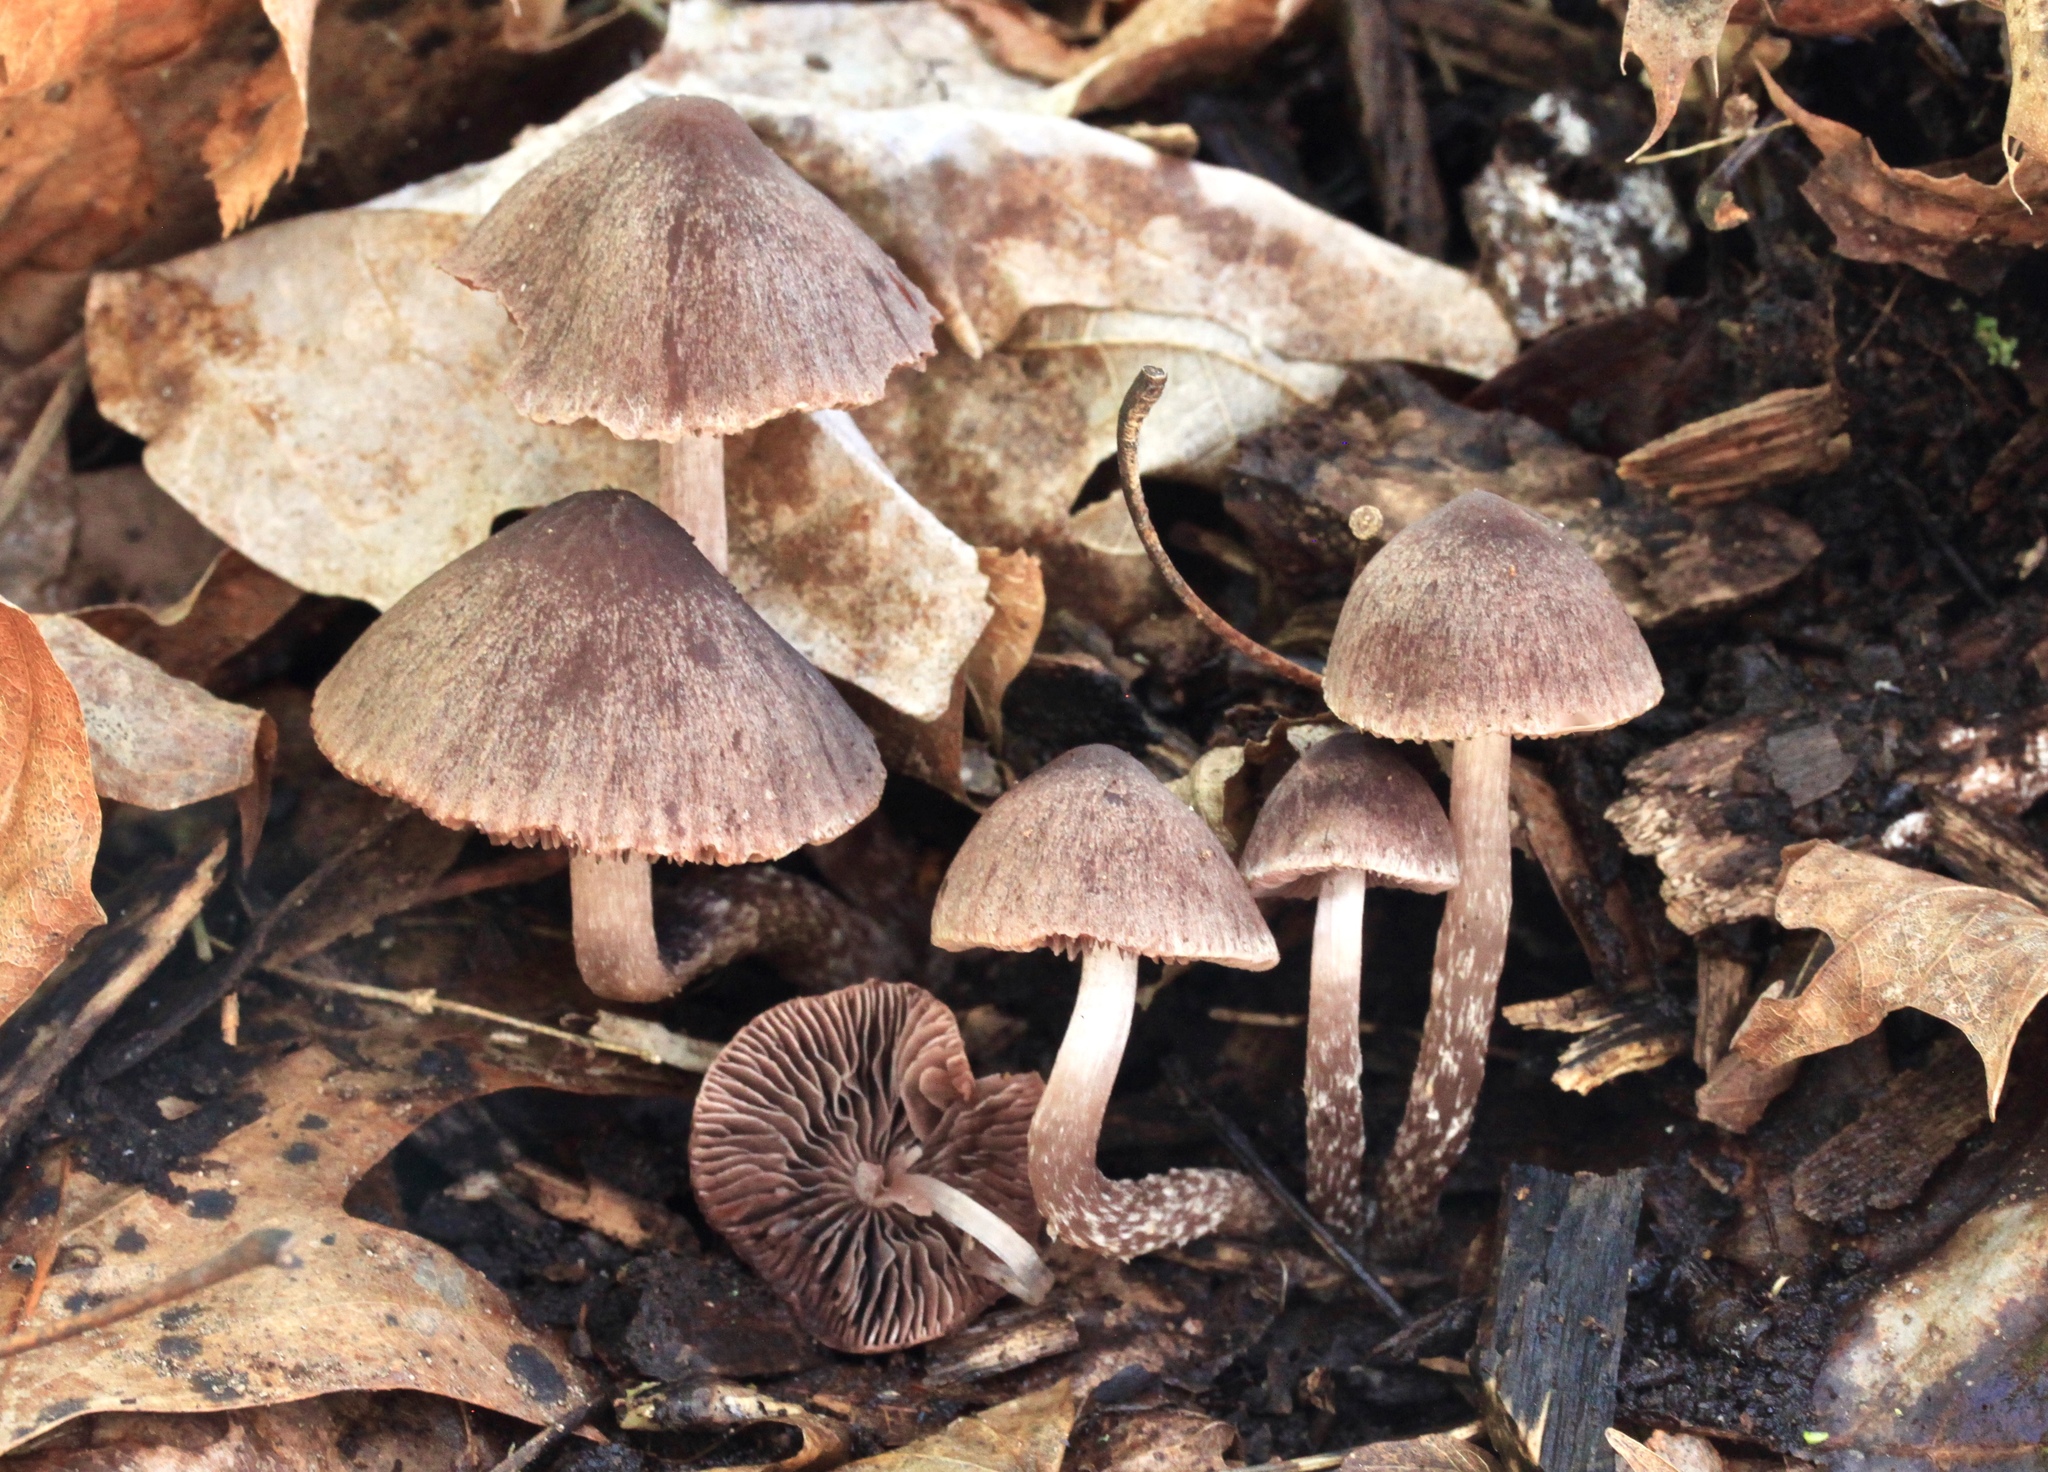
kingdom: Fungi
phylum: Basidiomycota
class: Agaricomycetes
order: Agaricales
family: Psathyrellaceae
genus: Psathyrella
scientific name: Psathyrella bipellis
